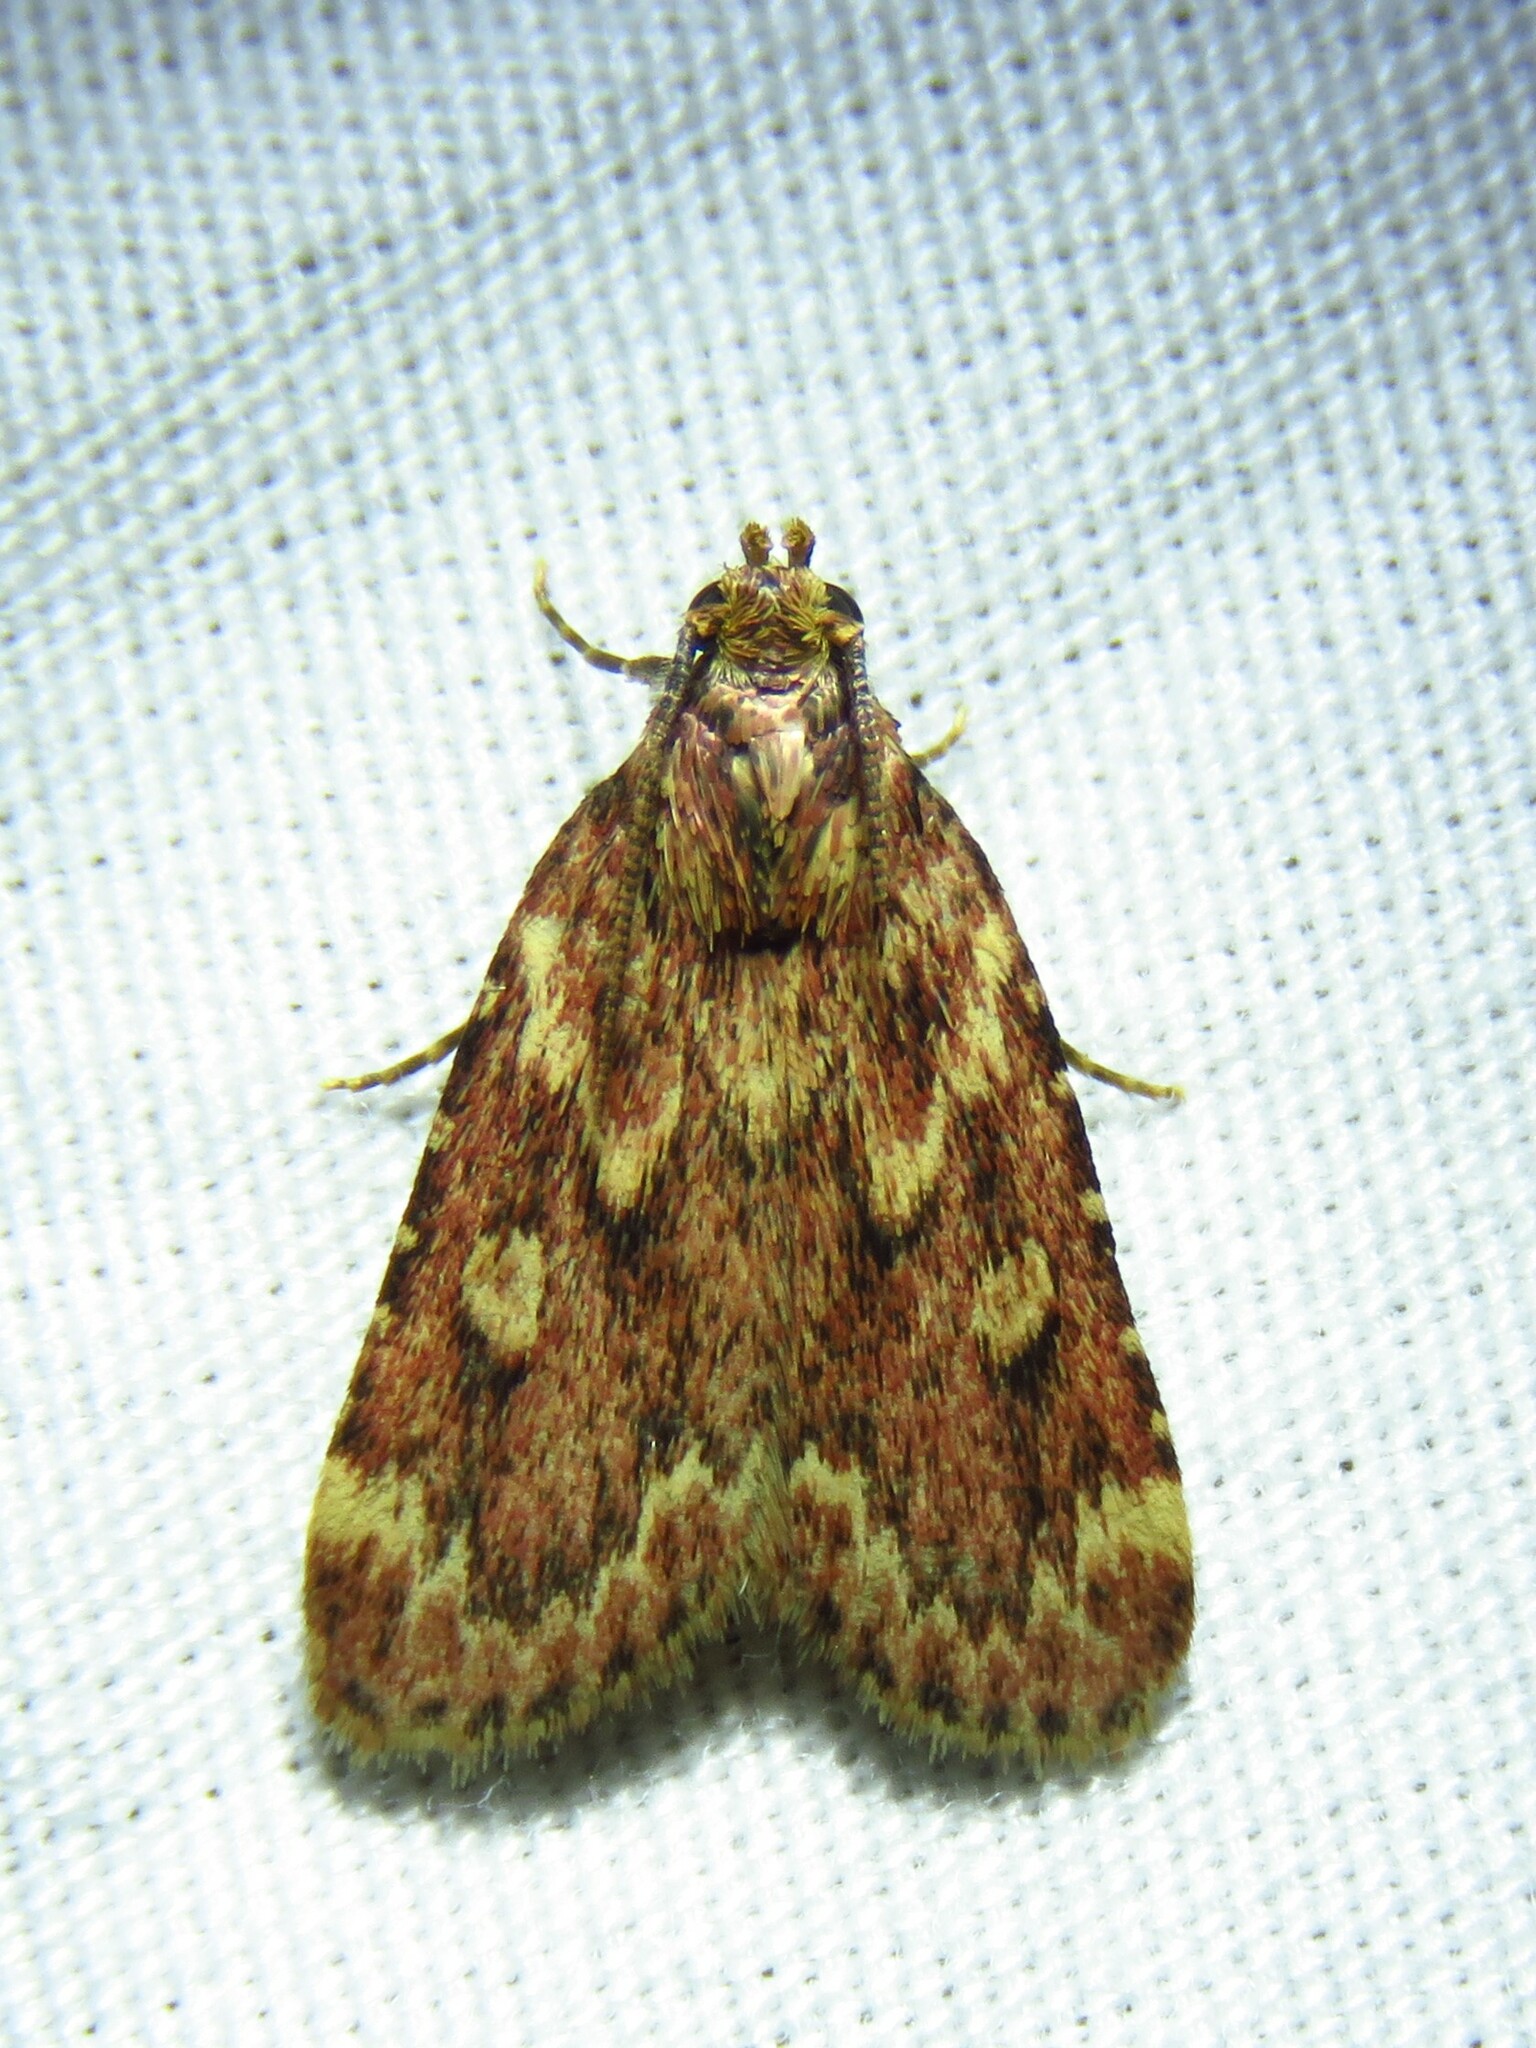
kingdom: Animalia
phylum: Arthropoda
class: Insecta
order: Lepidoptera
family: Pyralidae
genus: Aglossa
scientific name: Aglossa cuprina
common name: Grease moth
